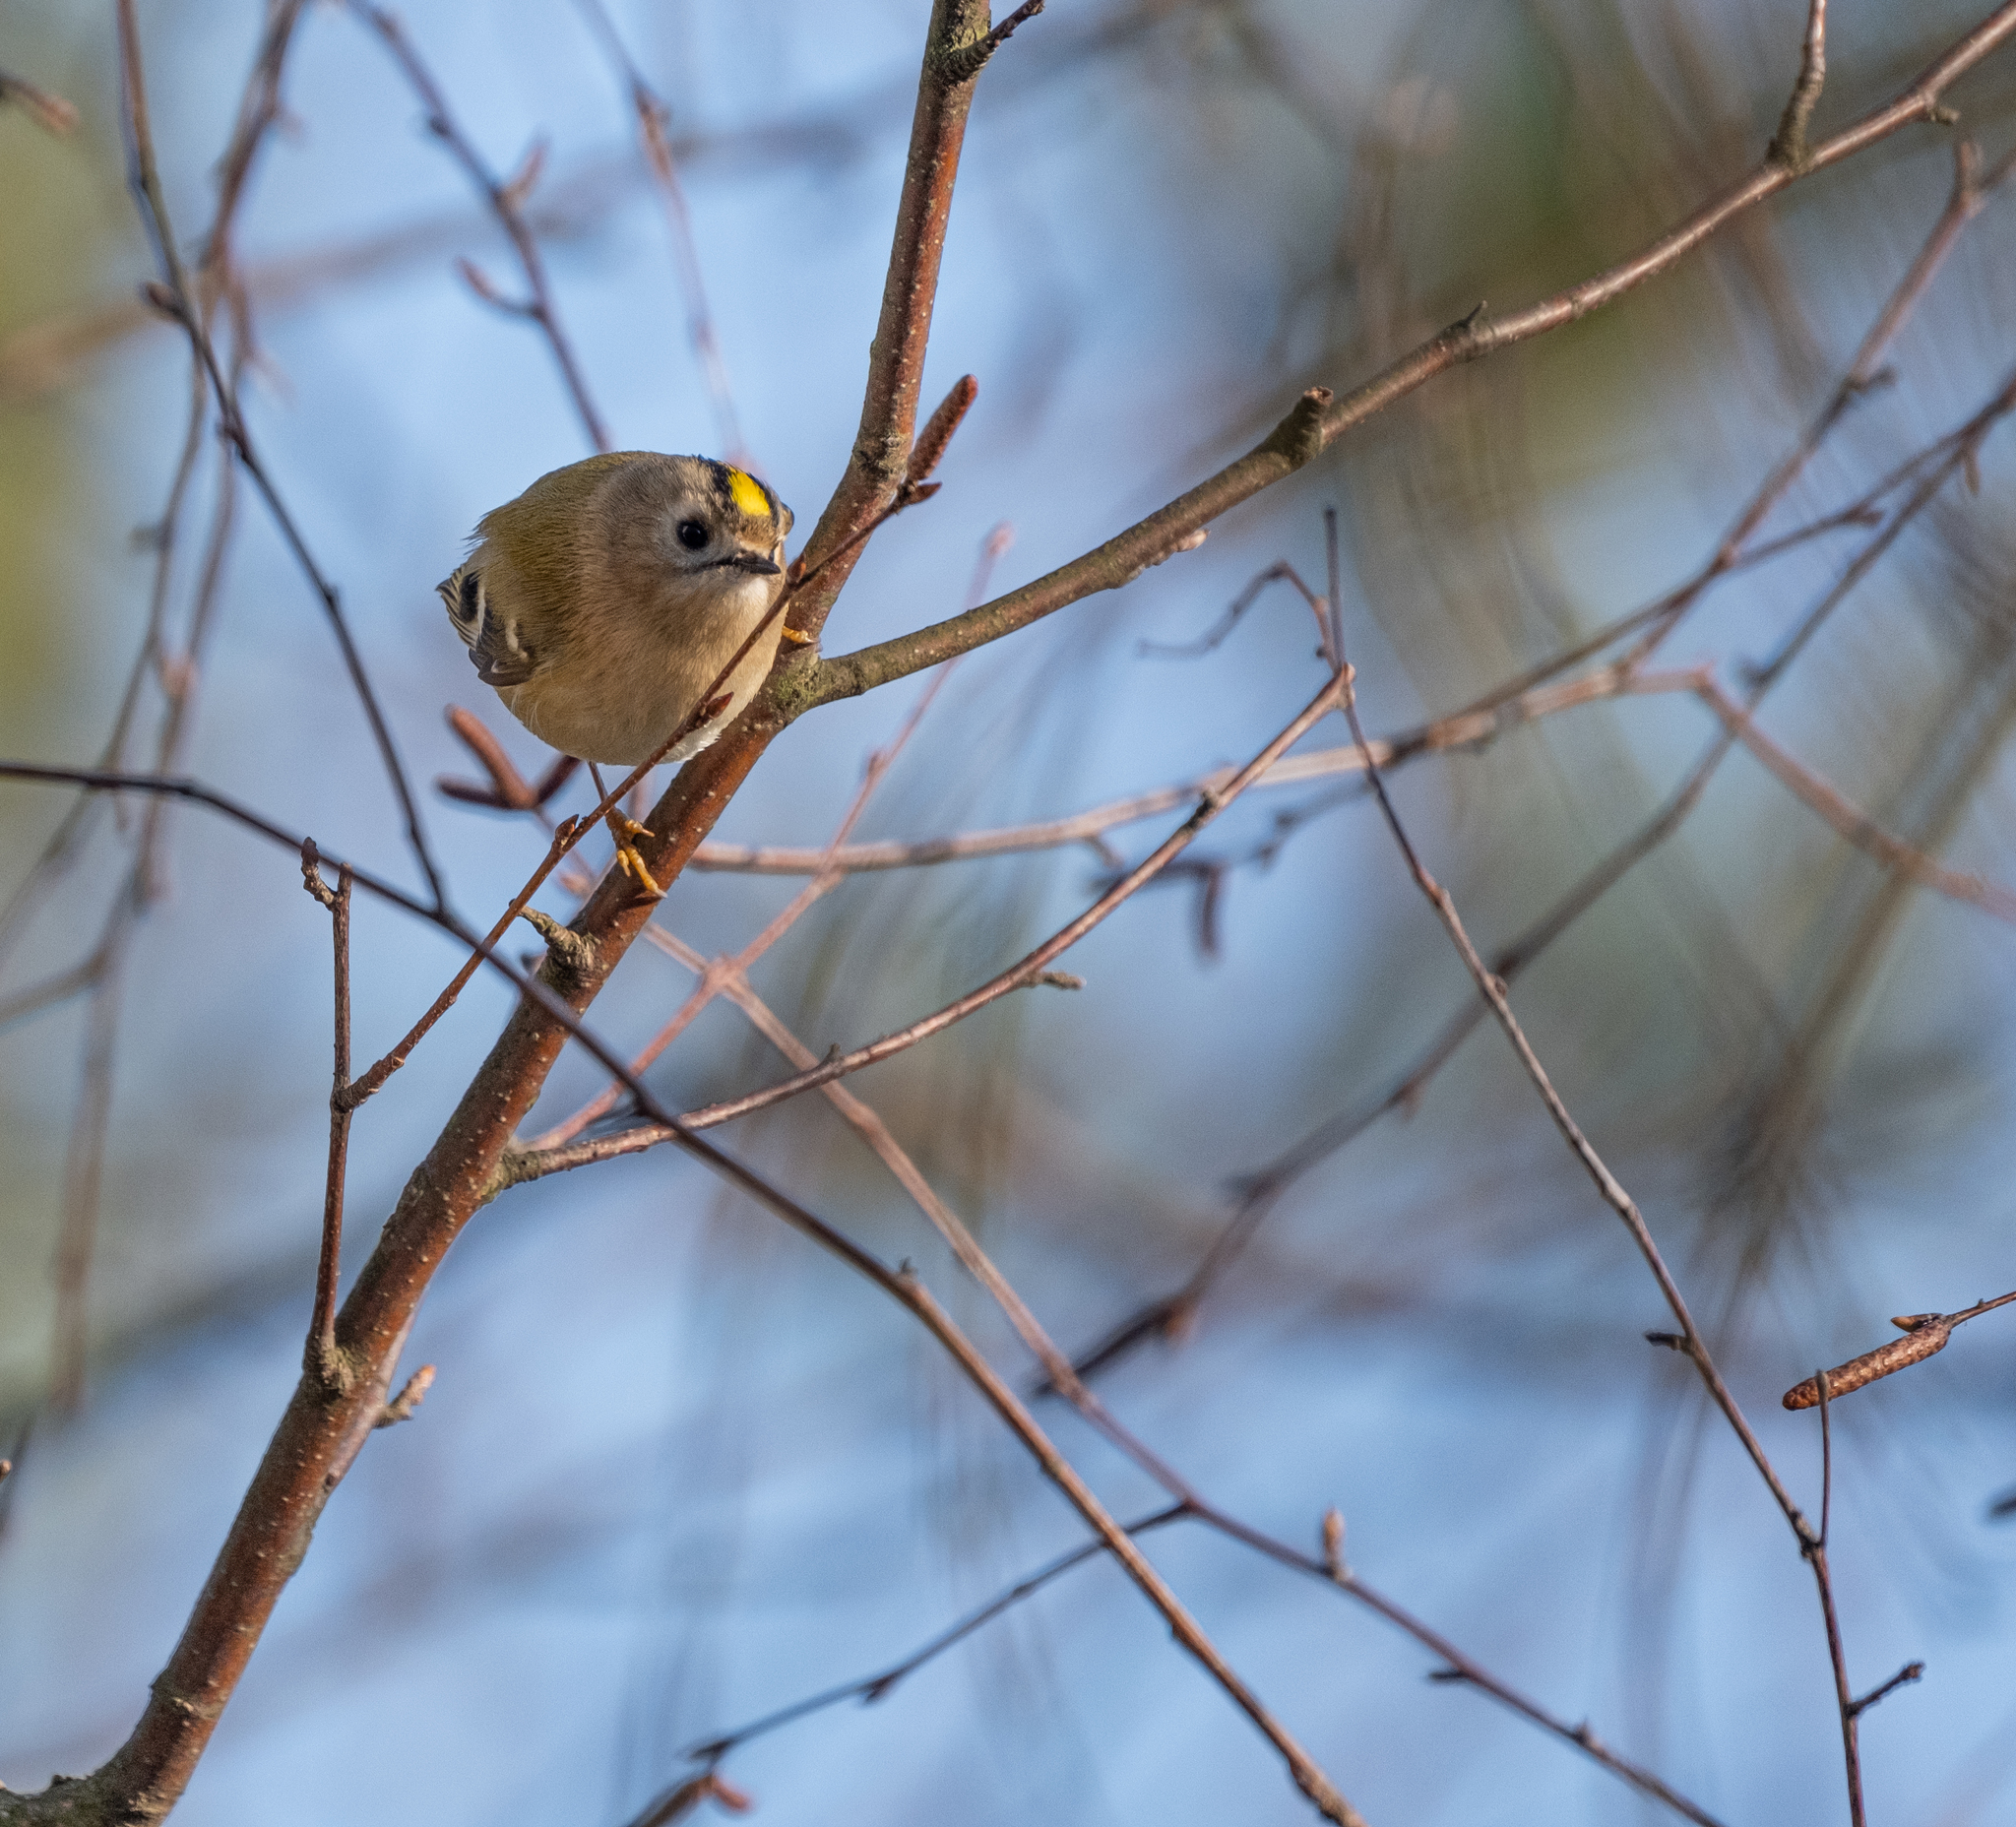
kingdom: Animalia
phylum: Chordata
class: Aves
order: Passeriformes
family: Regulidae
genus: Regulus
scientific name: Regulus regulus
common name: Goldcrest
